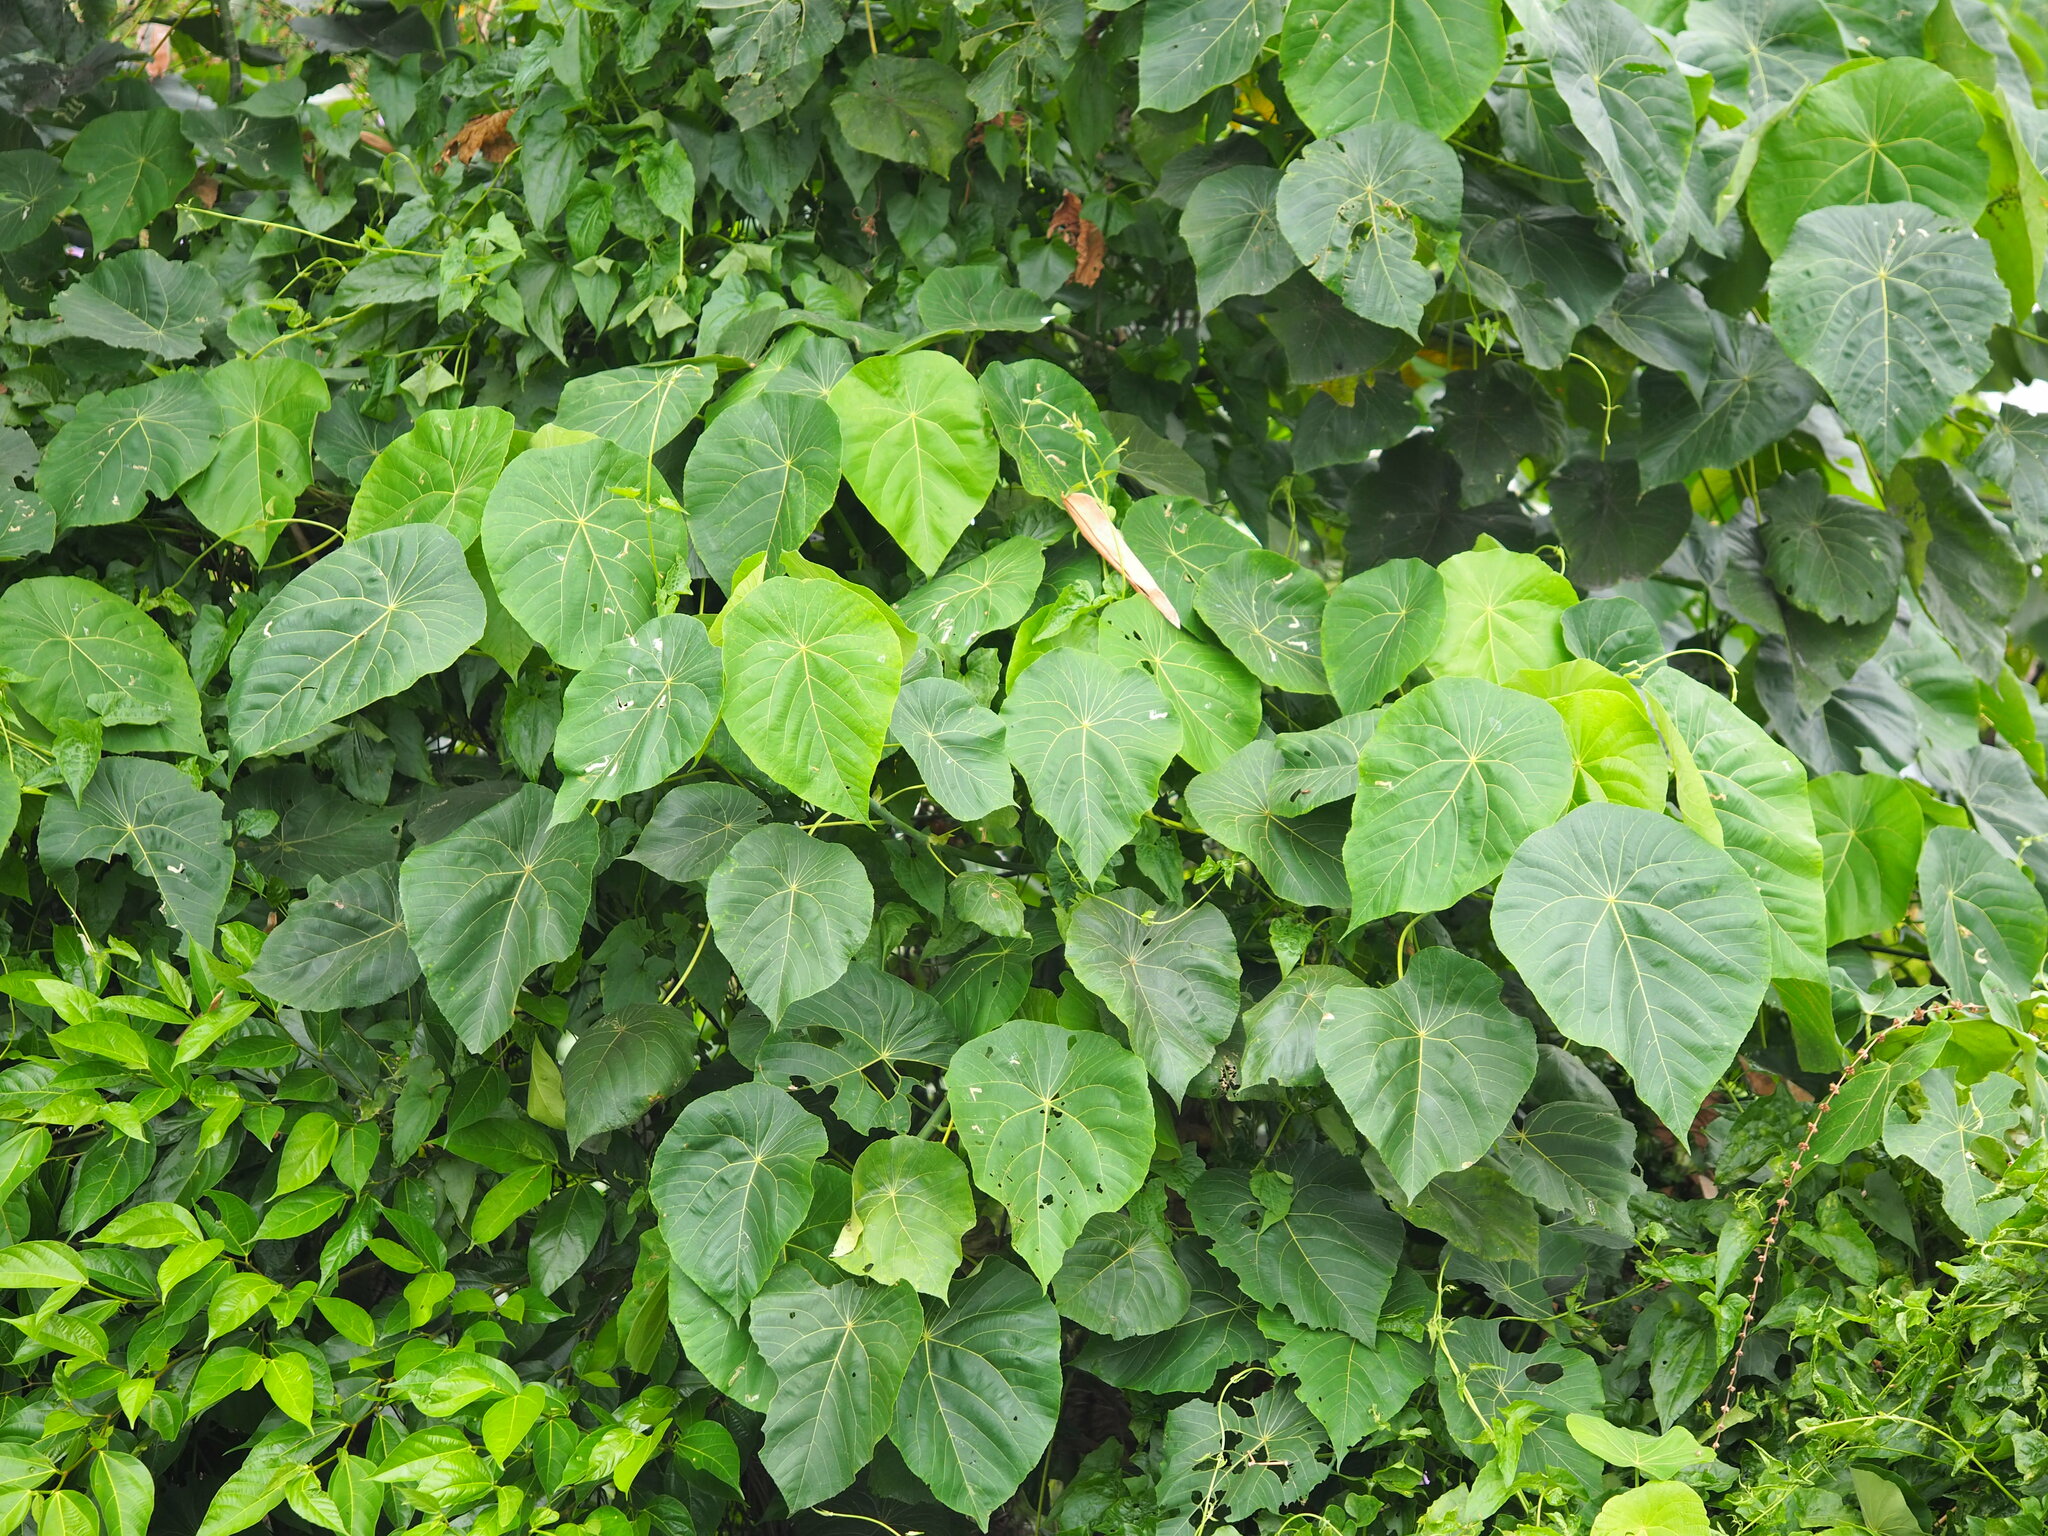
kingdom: Plantae
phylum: Tracheophyta
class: Magnoliopsida
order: Malpighiales
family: Euphorbiaceae
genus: Macaranga
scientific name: Macaranga tanarius
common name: Parasol leaf tree
